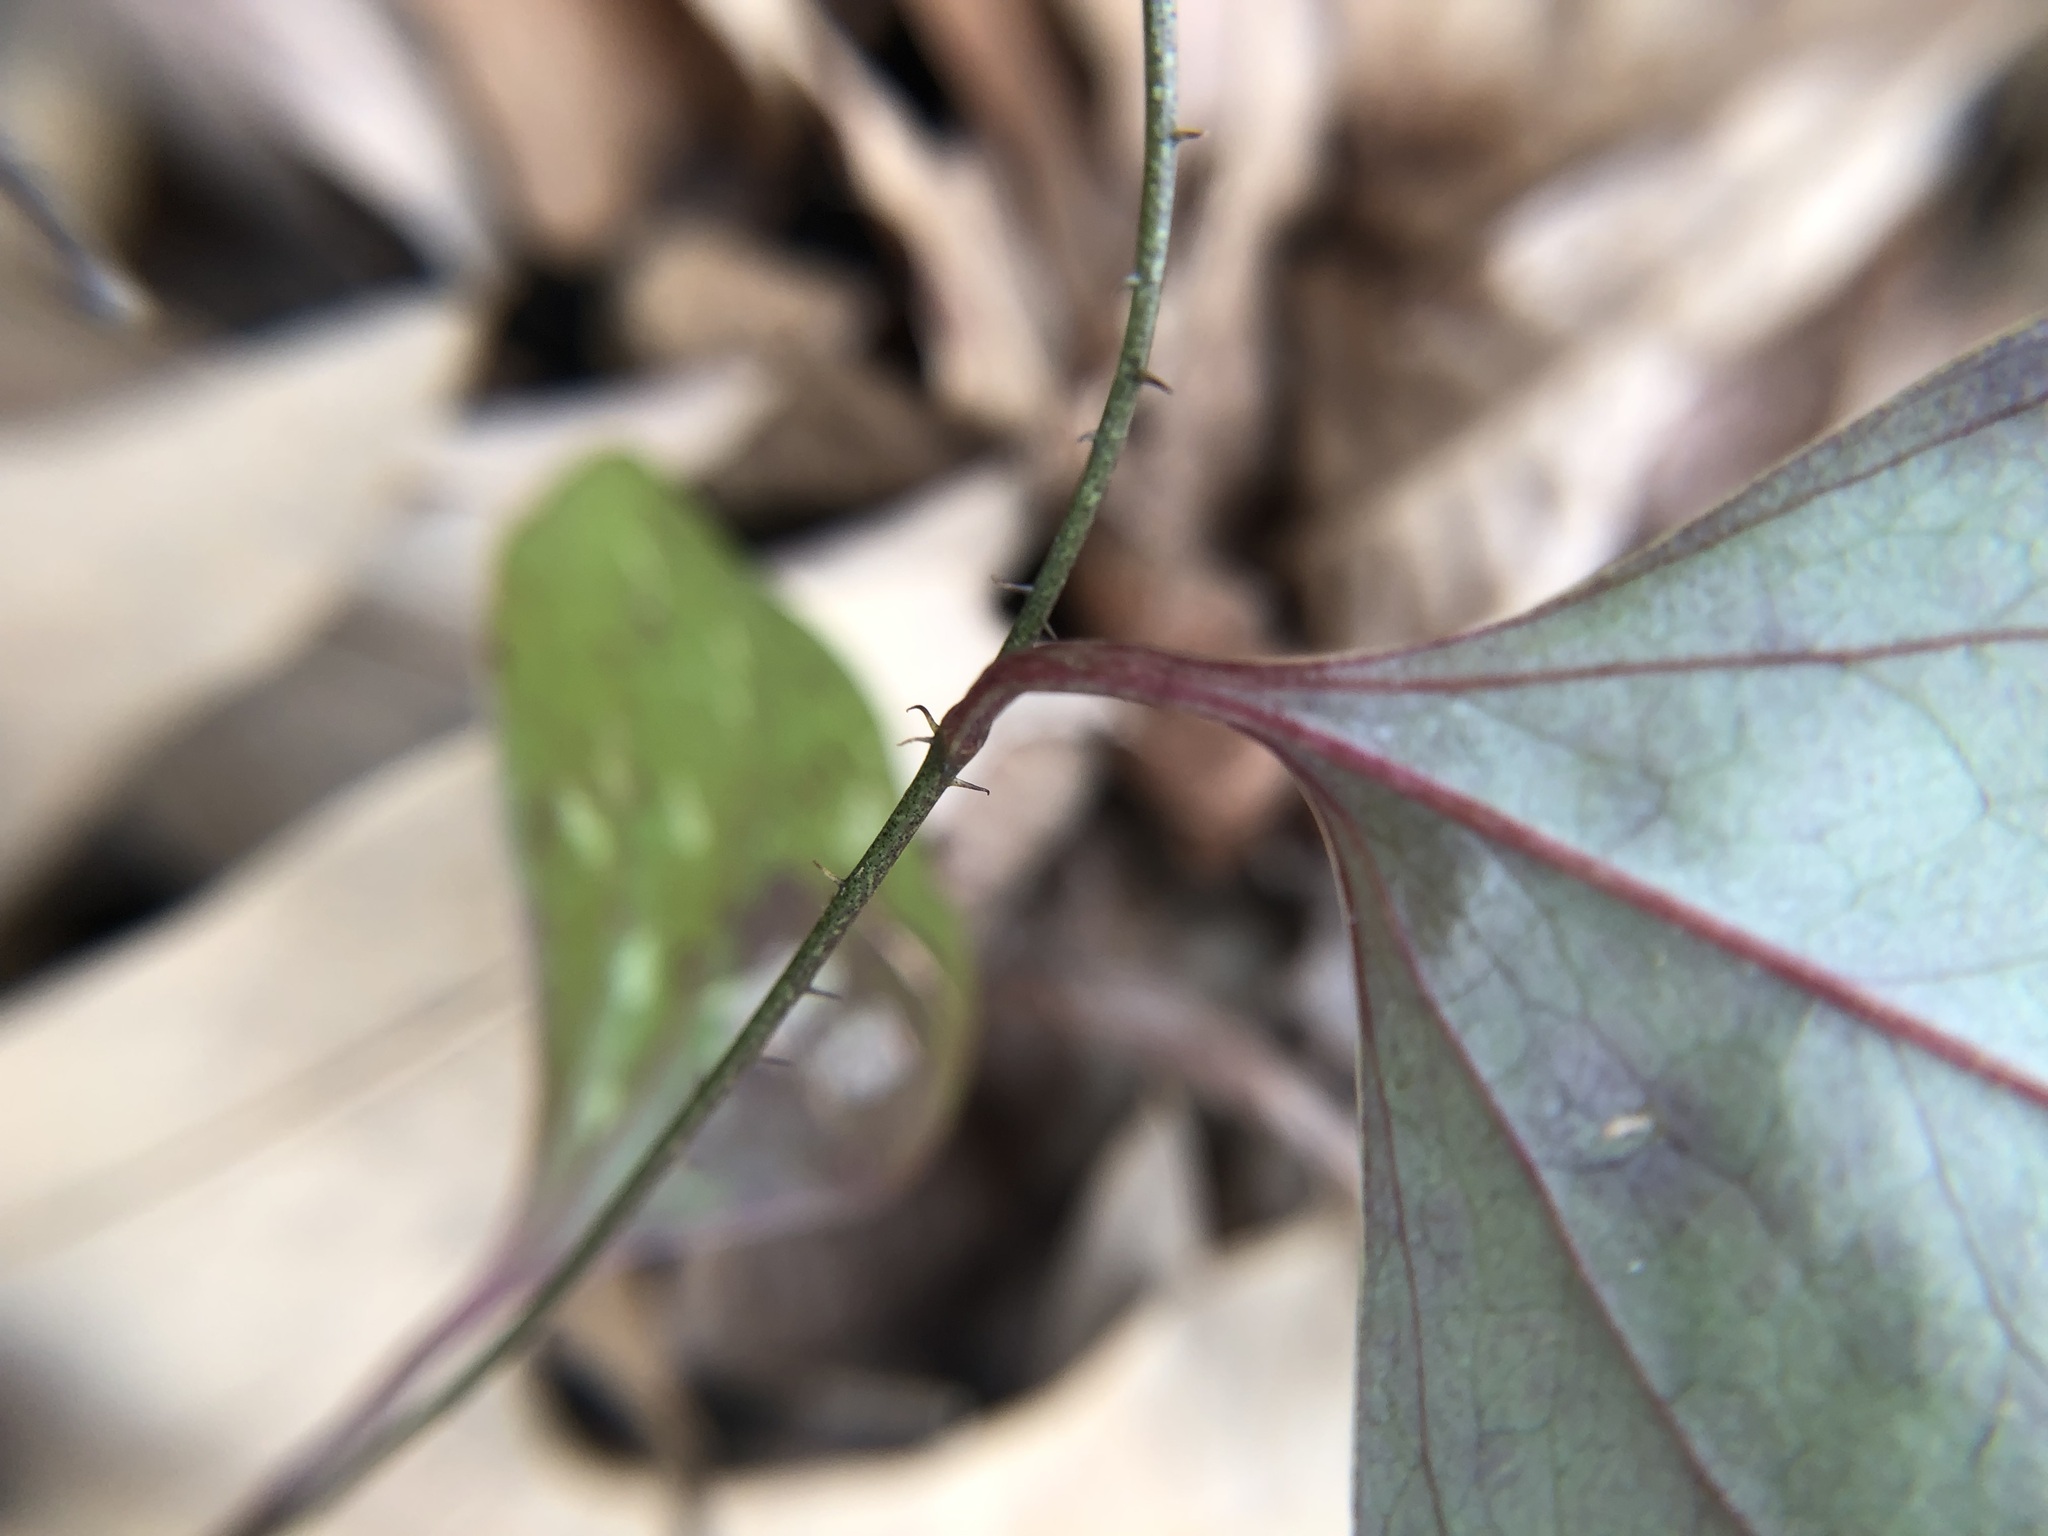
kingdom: Plantae
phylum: Tracheophyta
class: Liliopsida
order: Liliales
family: Smilacaceae
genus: Smilax
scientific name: Smilax glauca
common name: Cat greenbrier
